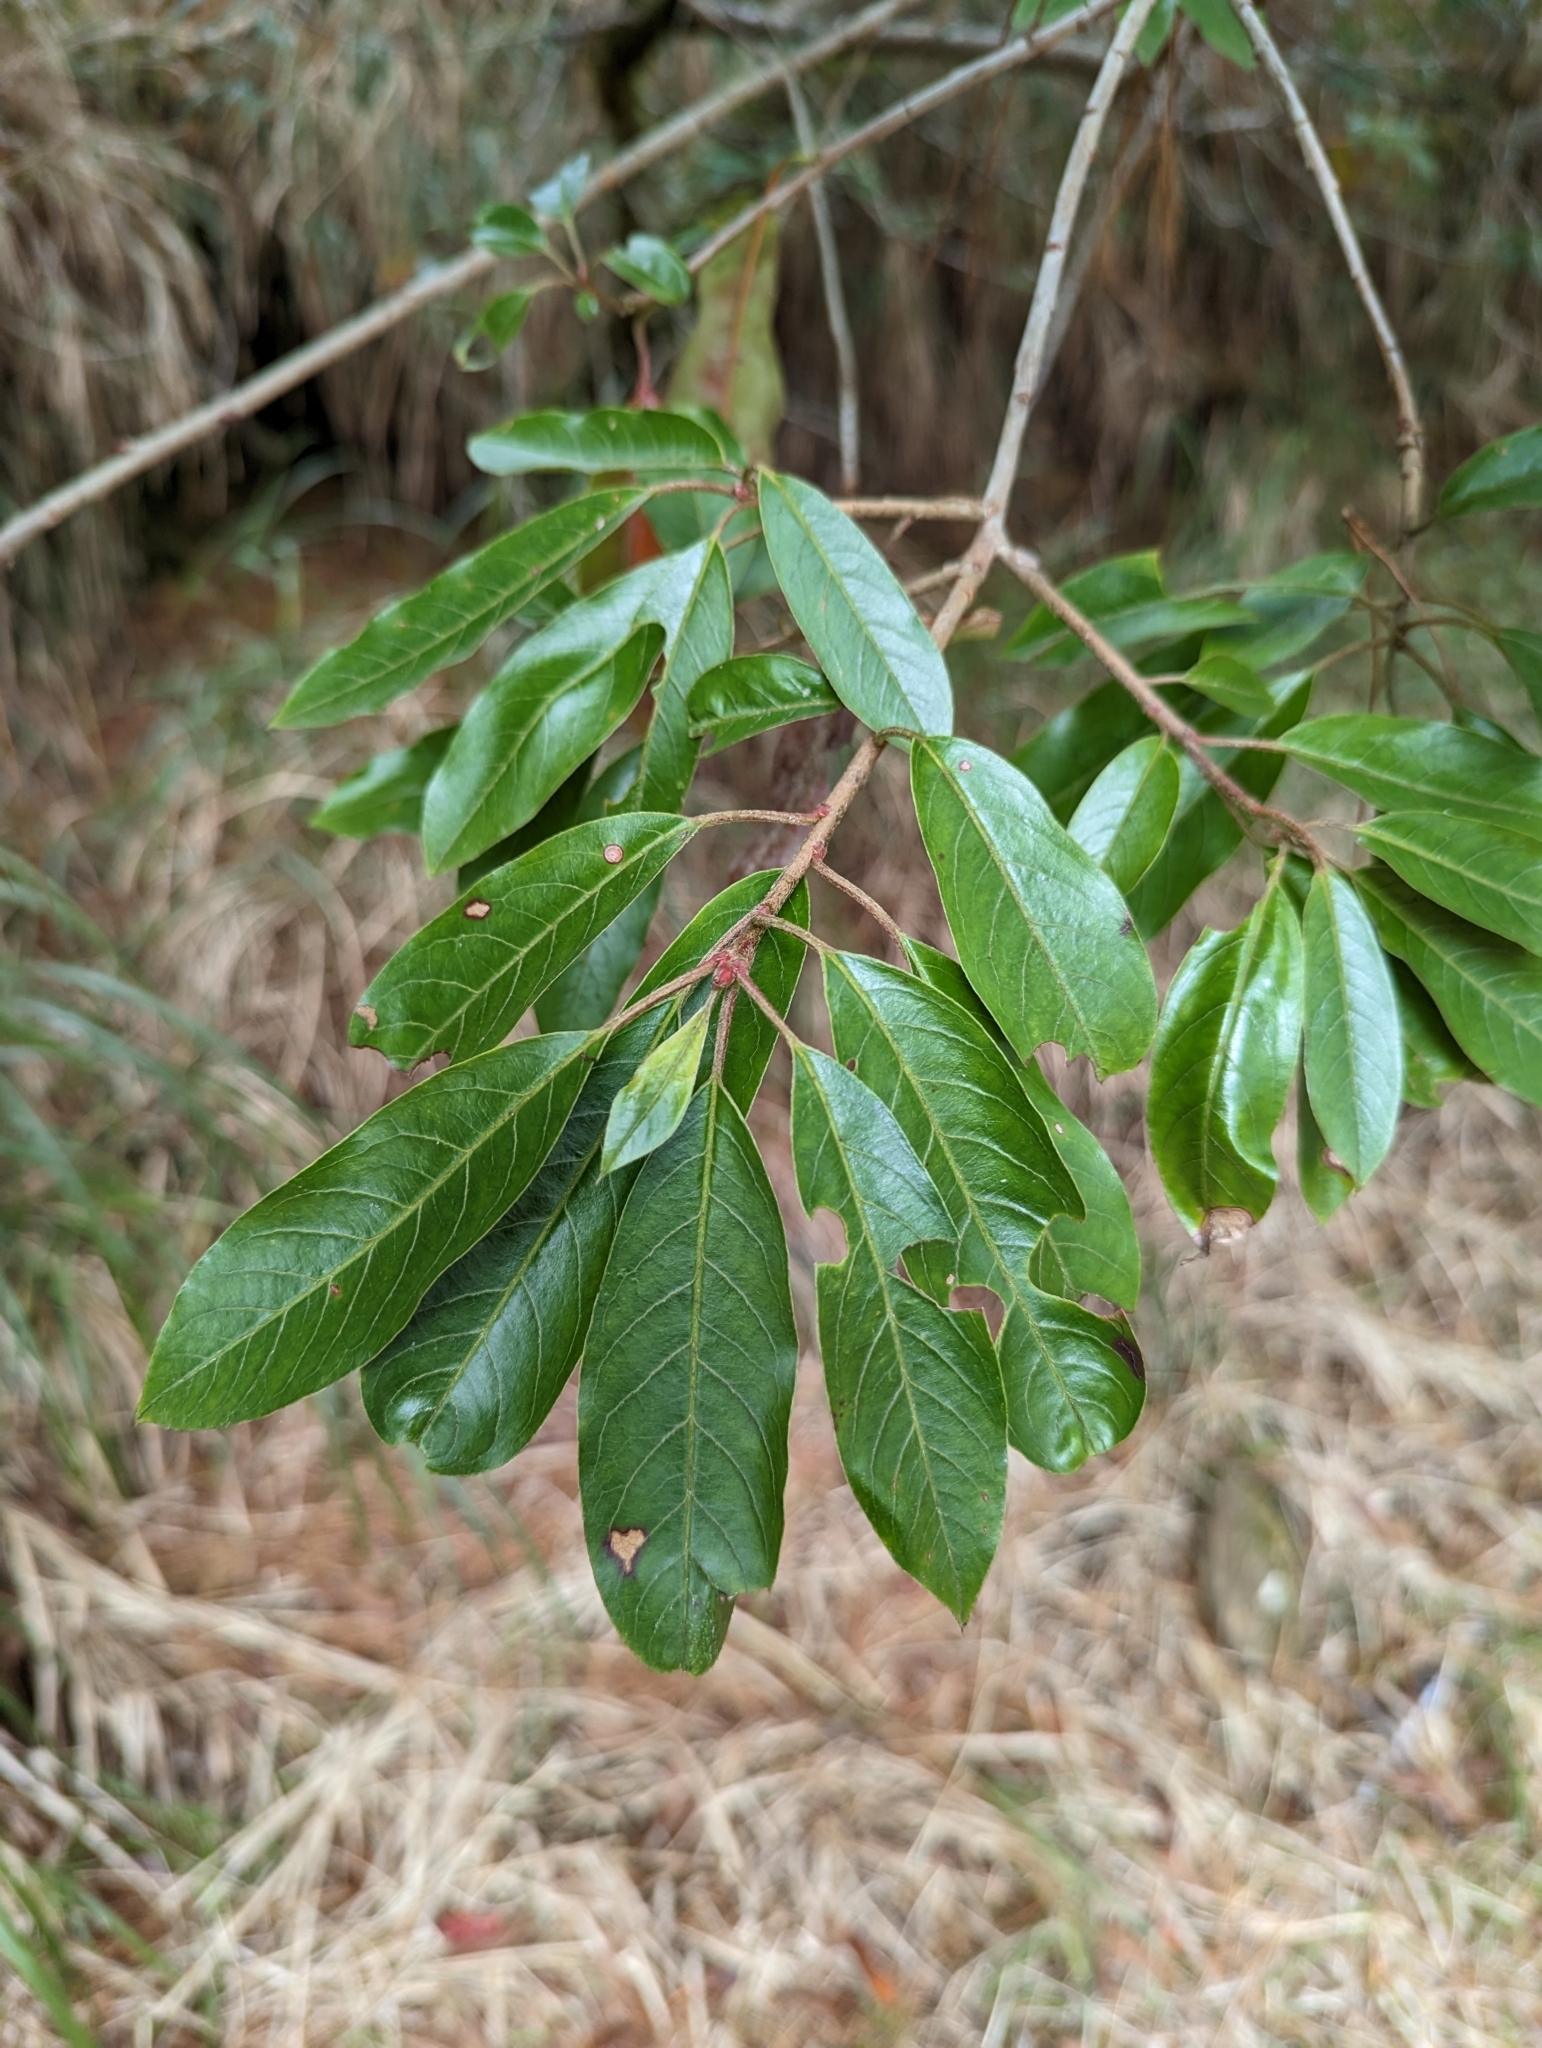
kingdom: Plantae
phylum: Tracheophyta
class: Magnoliopsida
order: Rosales
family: Rosaceae
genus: Stranvaesia
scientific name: Stranvaesia davidiana
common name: Chinese photinia
